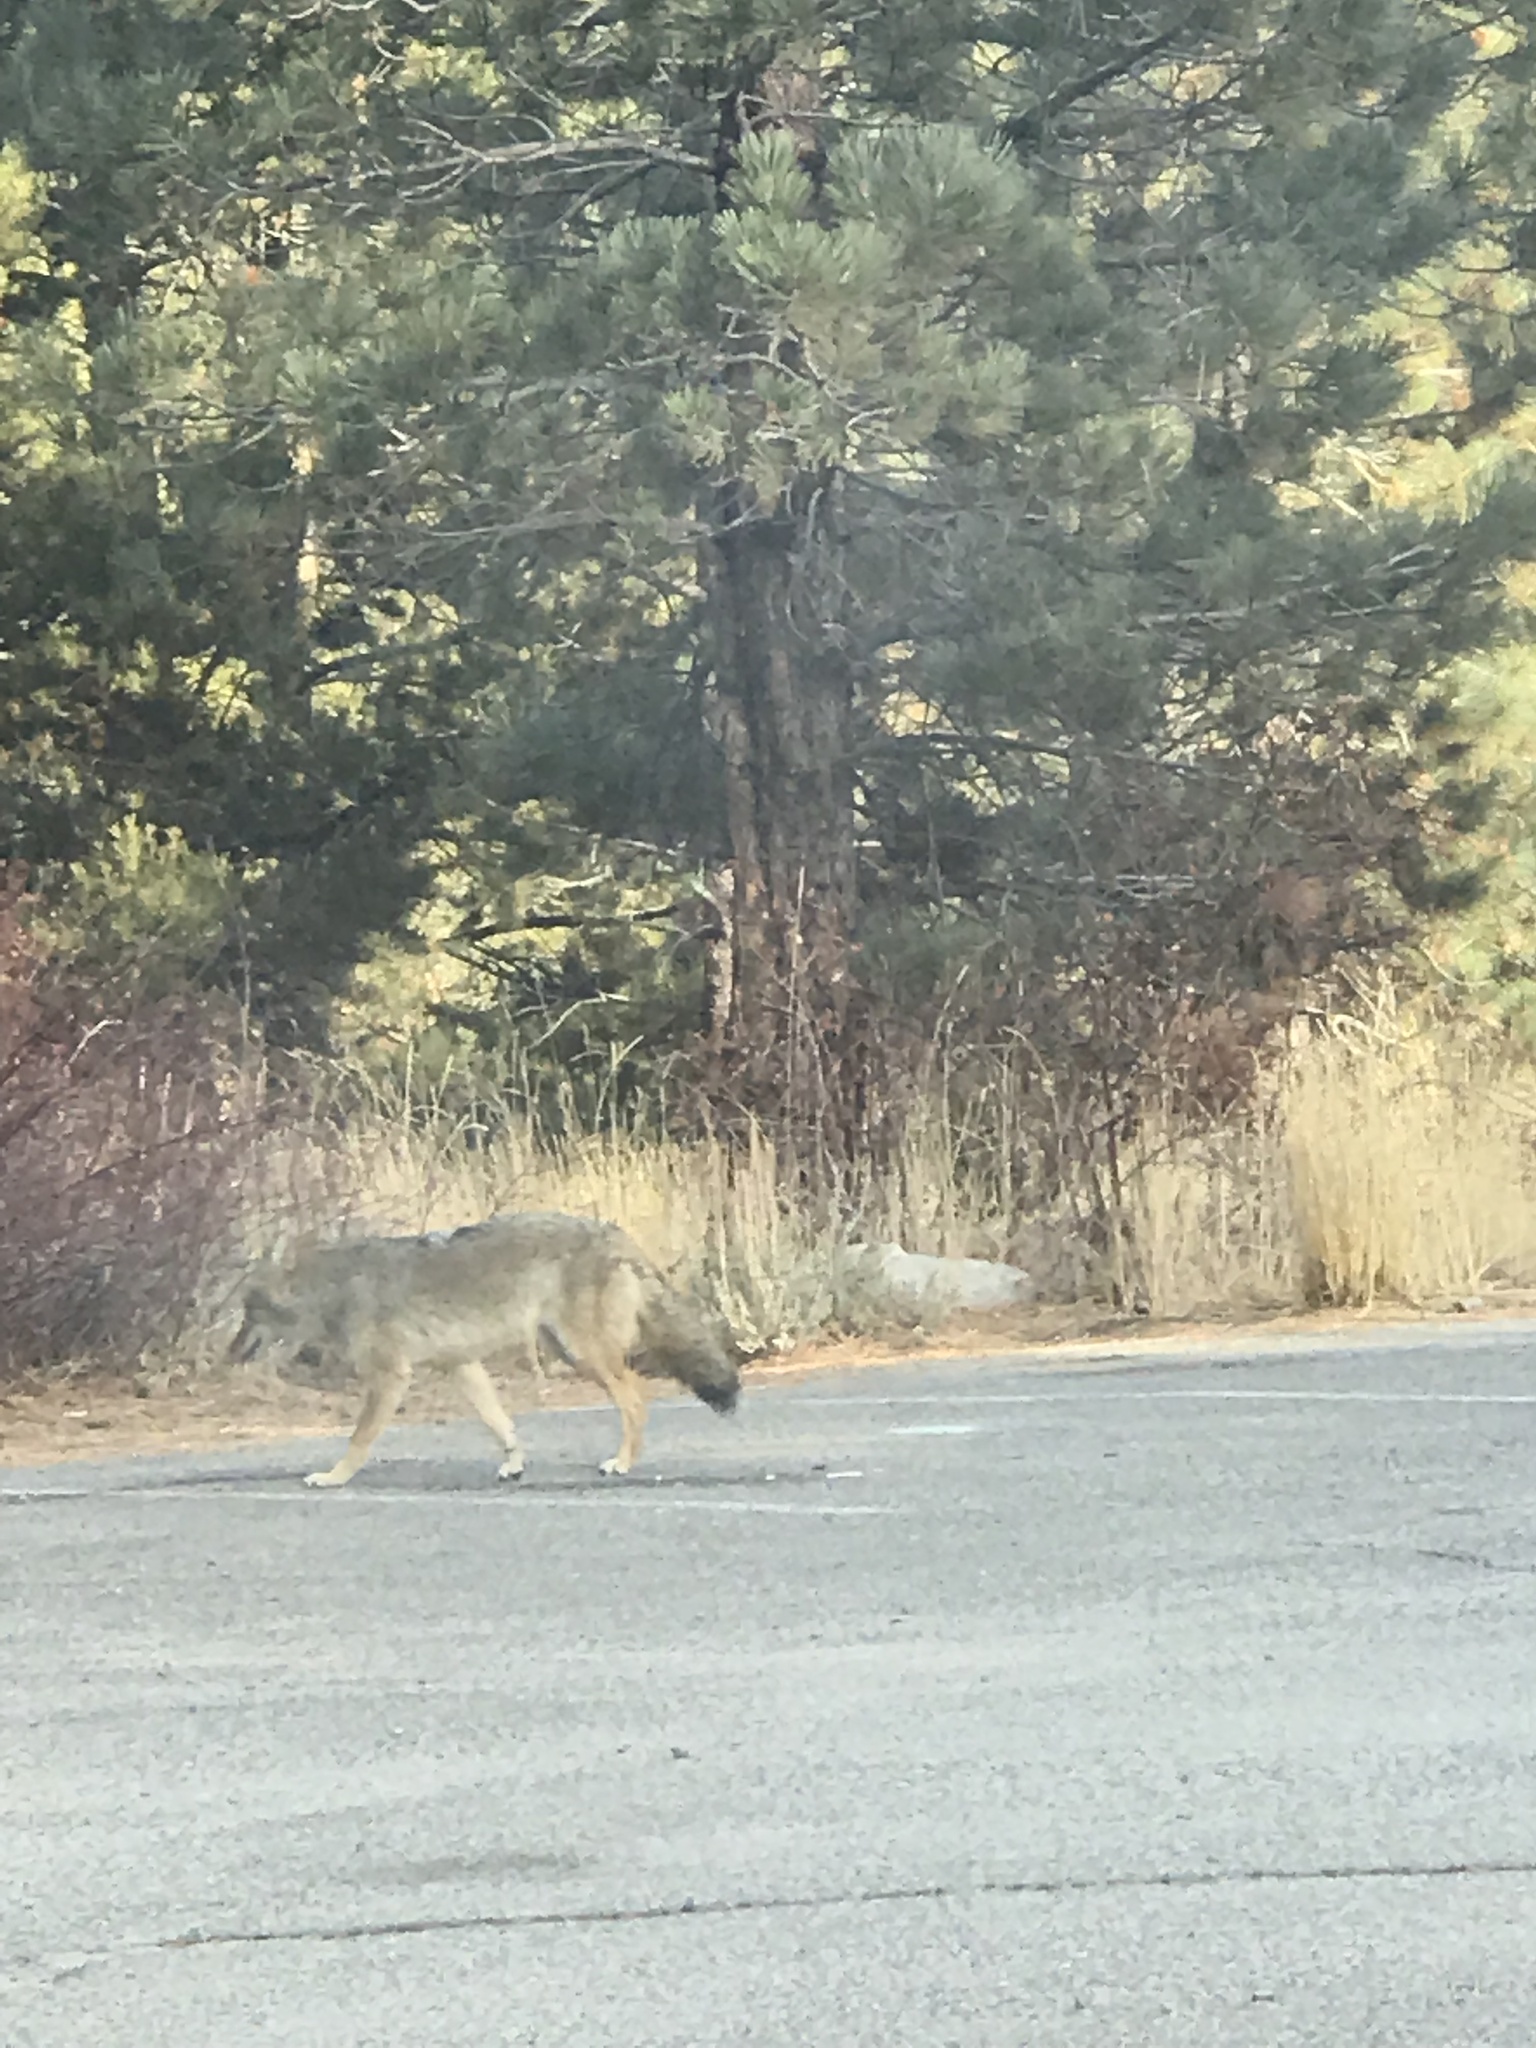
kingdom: Animalia
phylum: Chordata
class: Mammalia
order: Carnivora
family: Canidae
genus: Canis
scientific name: Canis latrans
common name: Coyote
